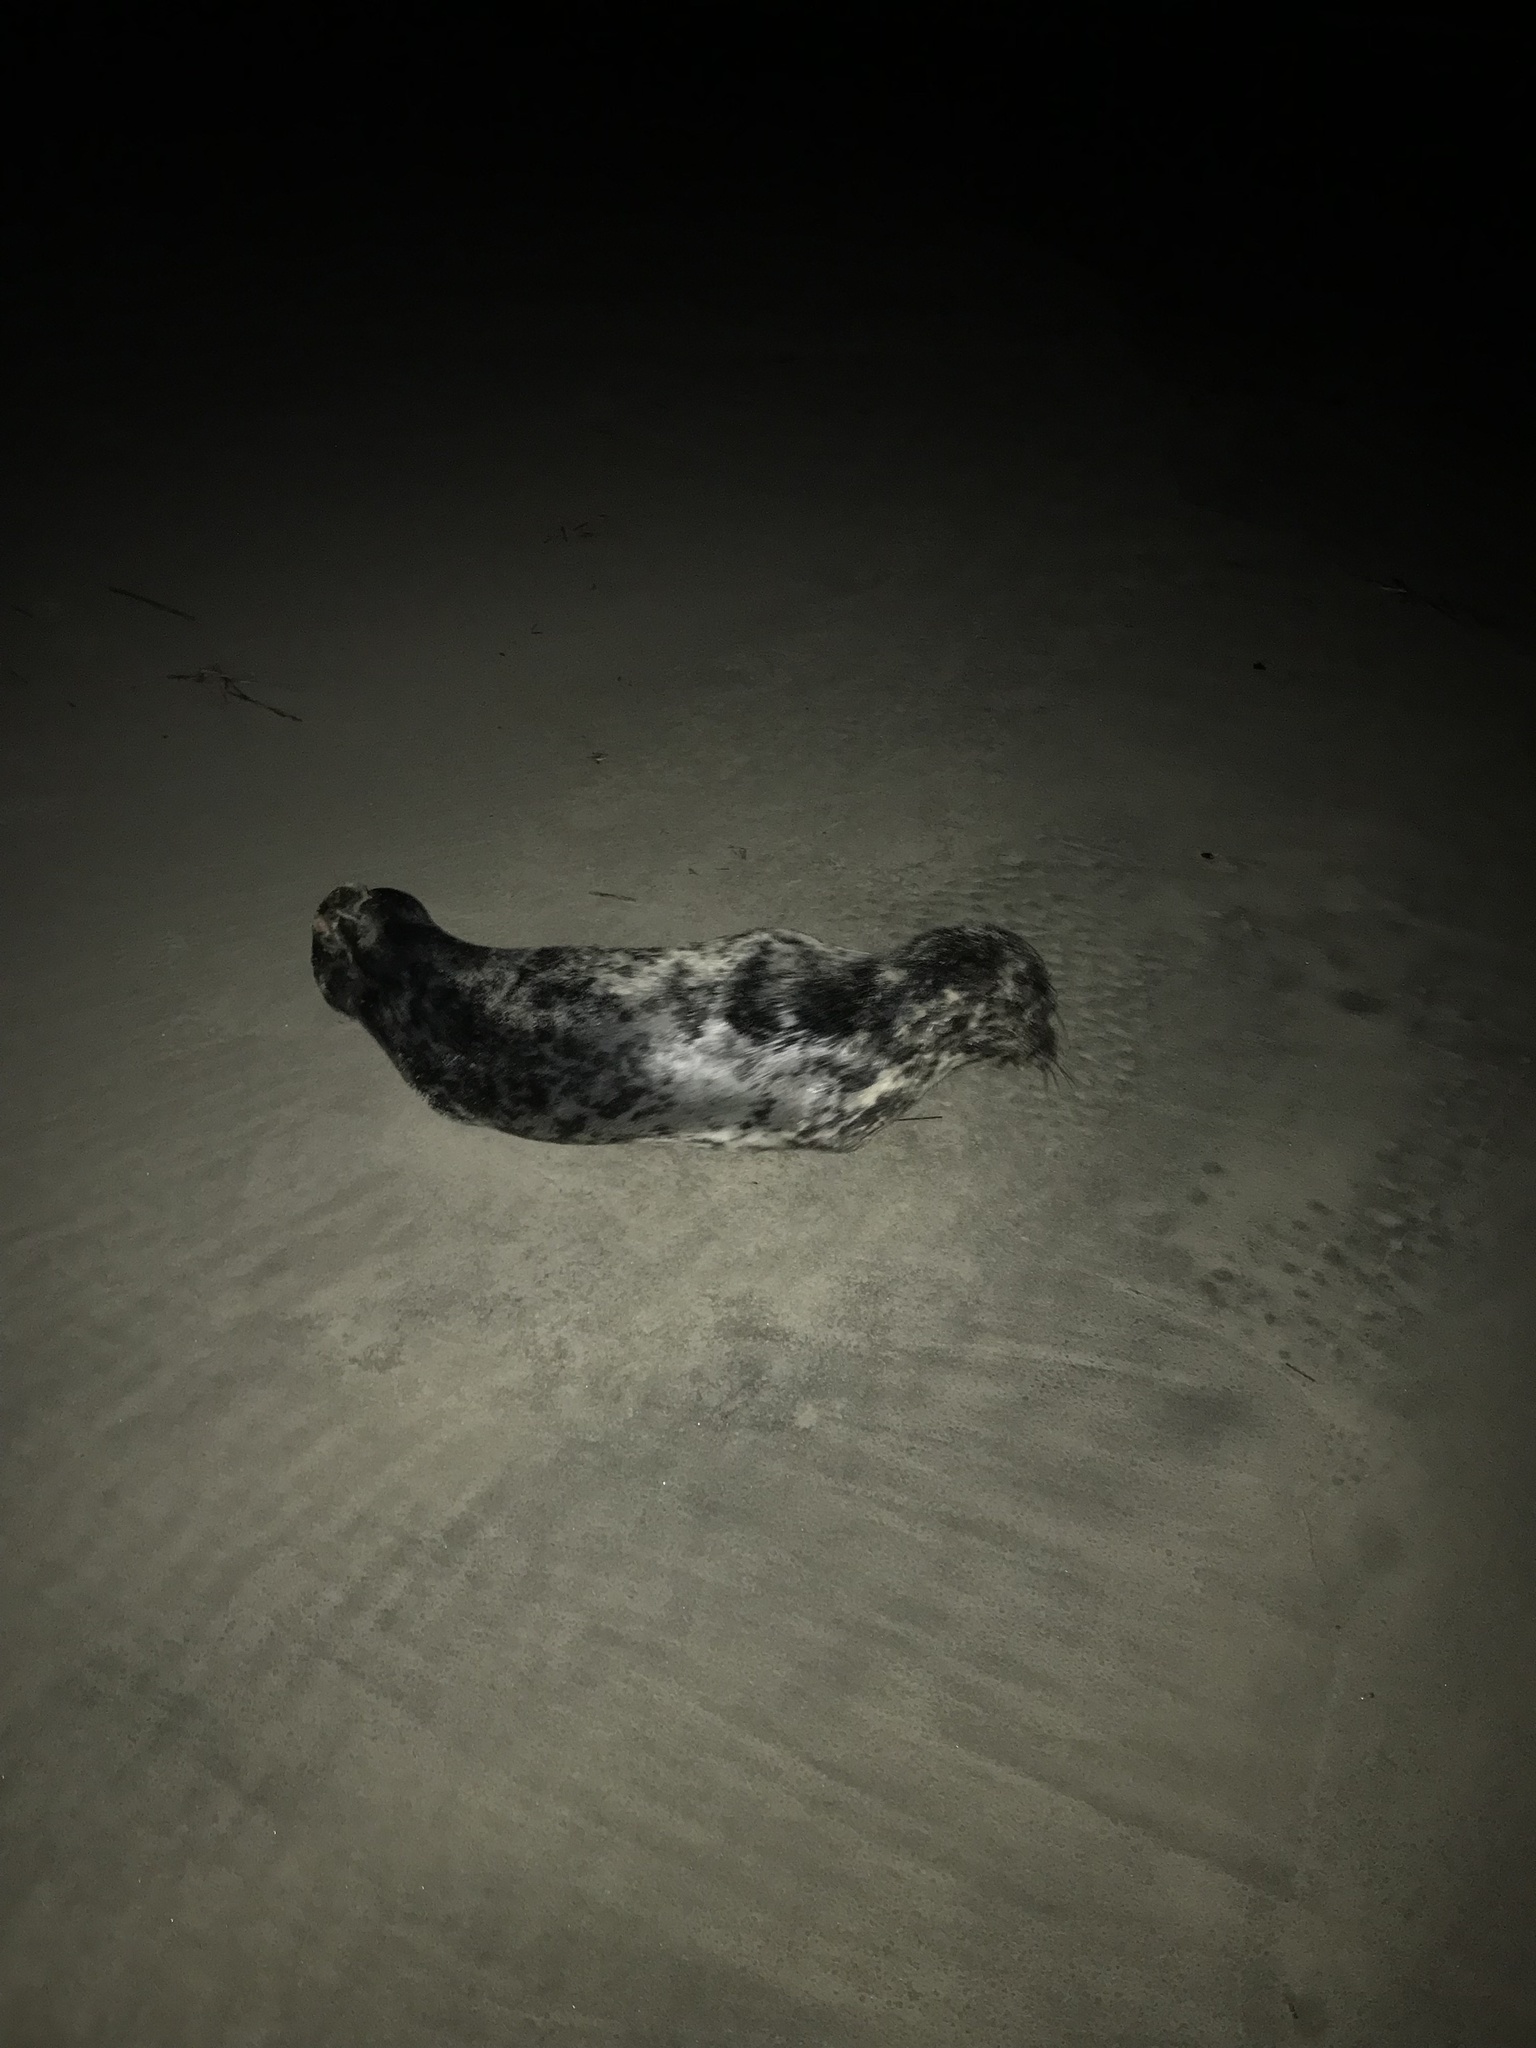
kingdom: Animalia
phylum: Chordata
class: Mammalia
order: Carnivora
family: Phocidae
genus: Halichoerus
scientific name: Halichoerus grypus
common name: Grey seal
